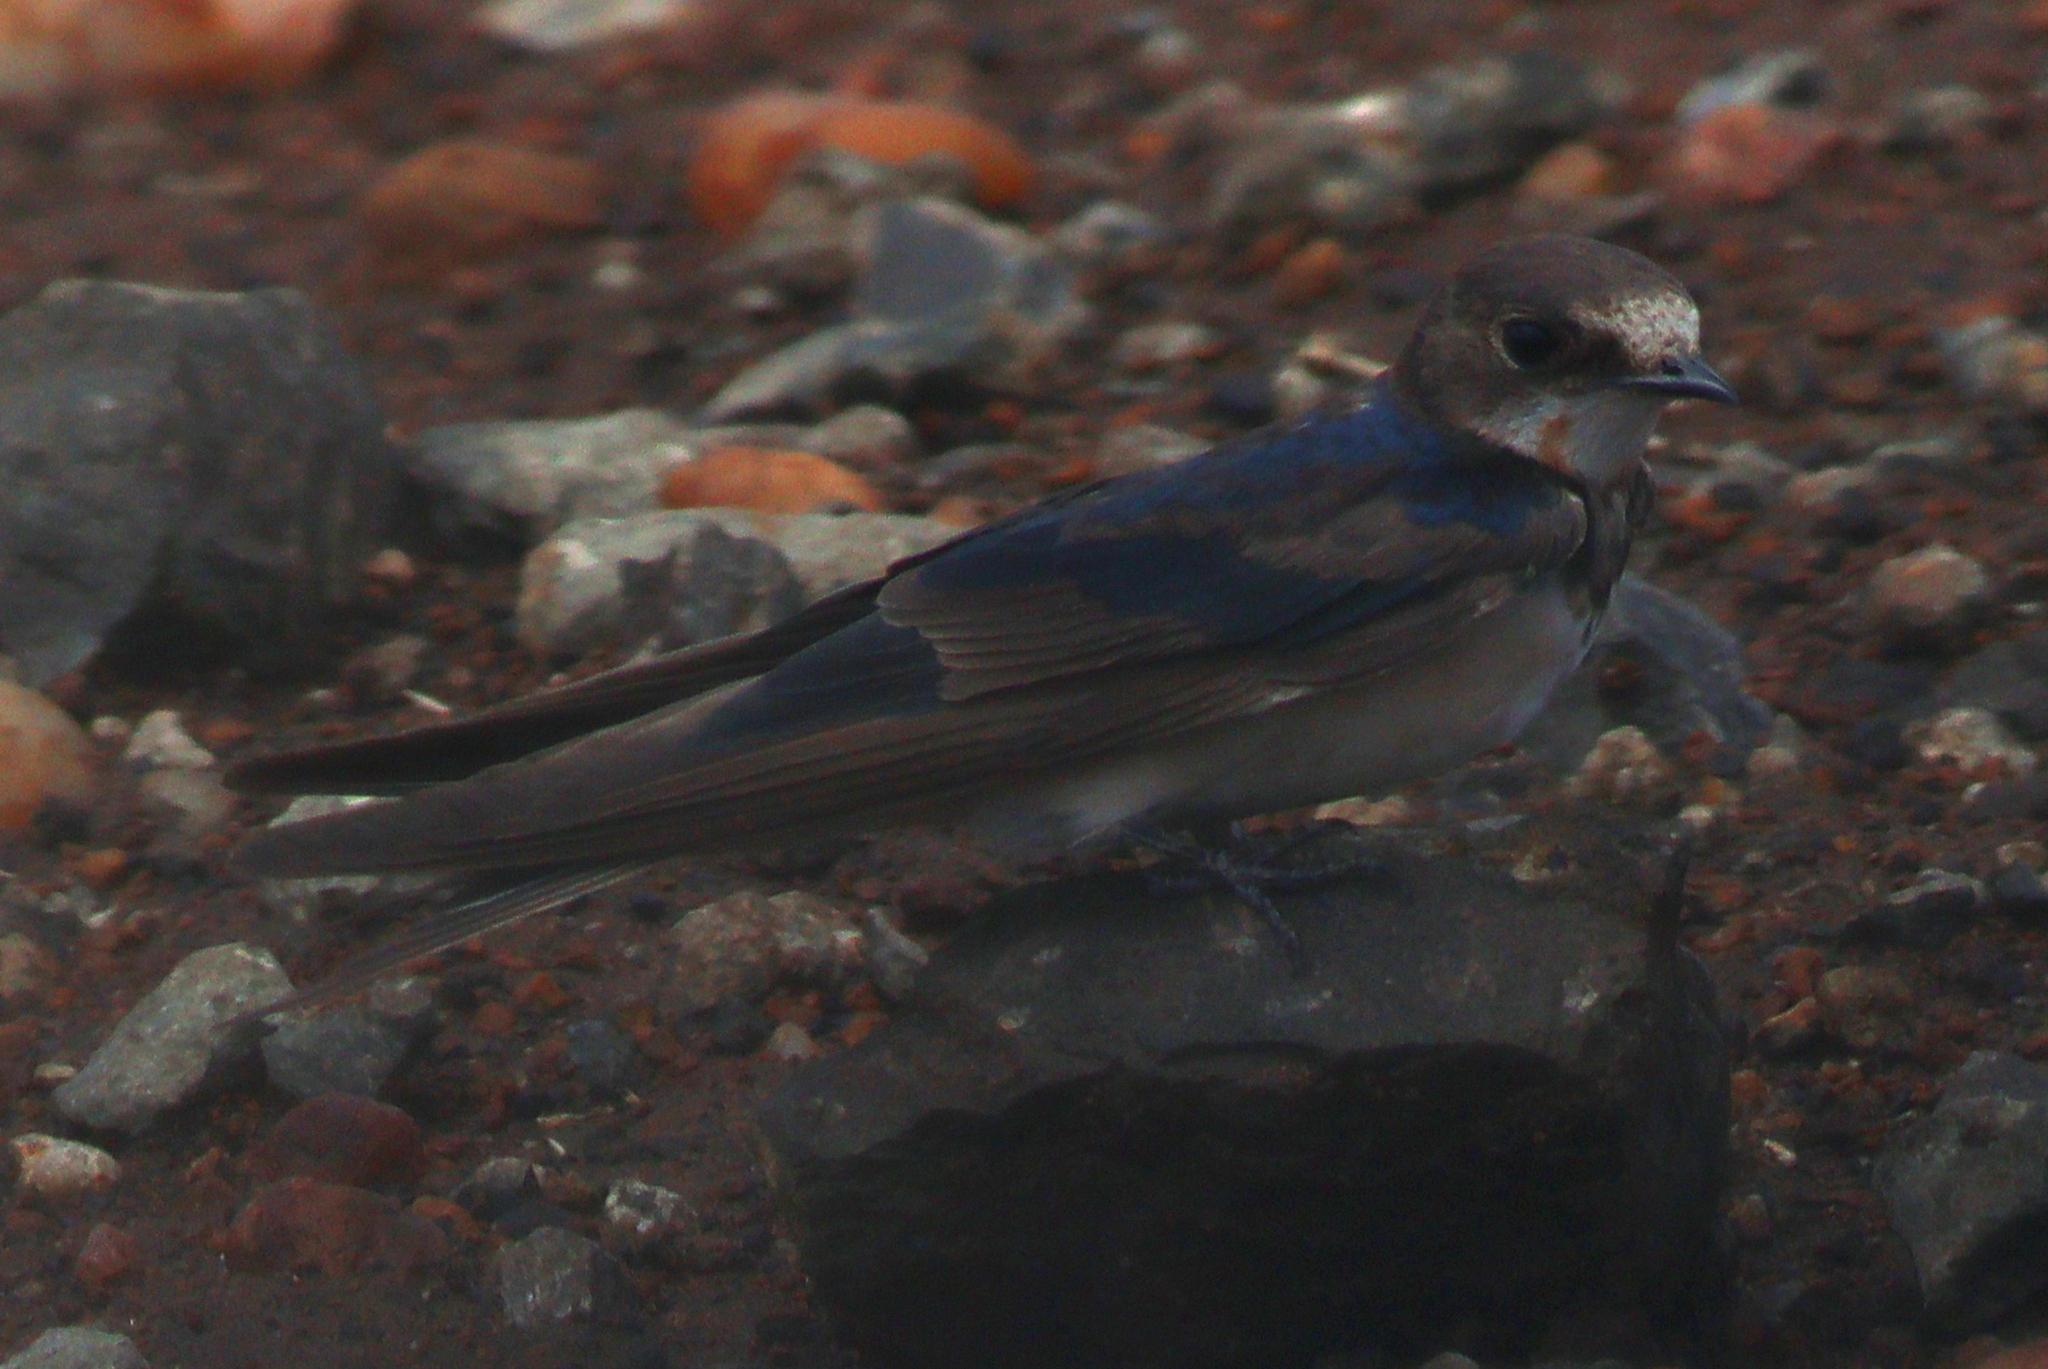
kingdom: Animalia
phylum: Chordata
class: Aves
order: Passeriformes
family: Hirundinidae
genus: Hirundo
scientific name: Hirundo rustica
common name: Barn swallow
